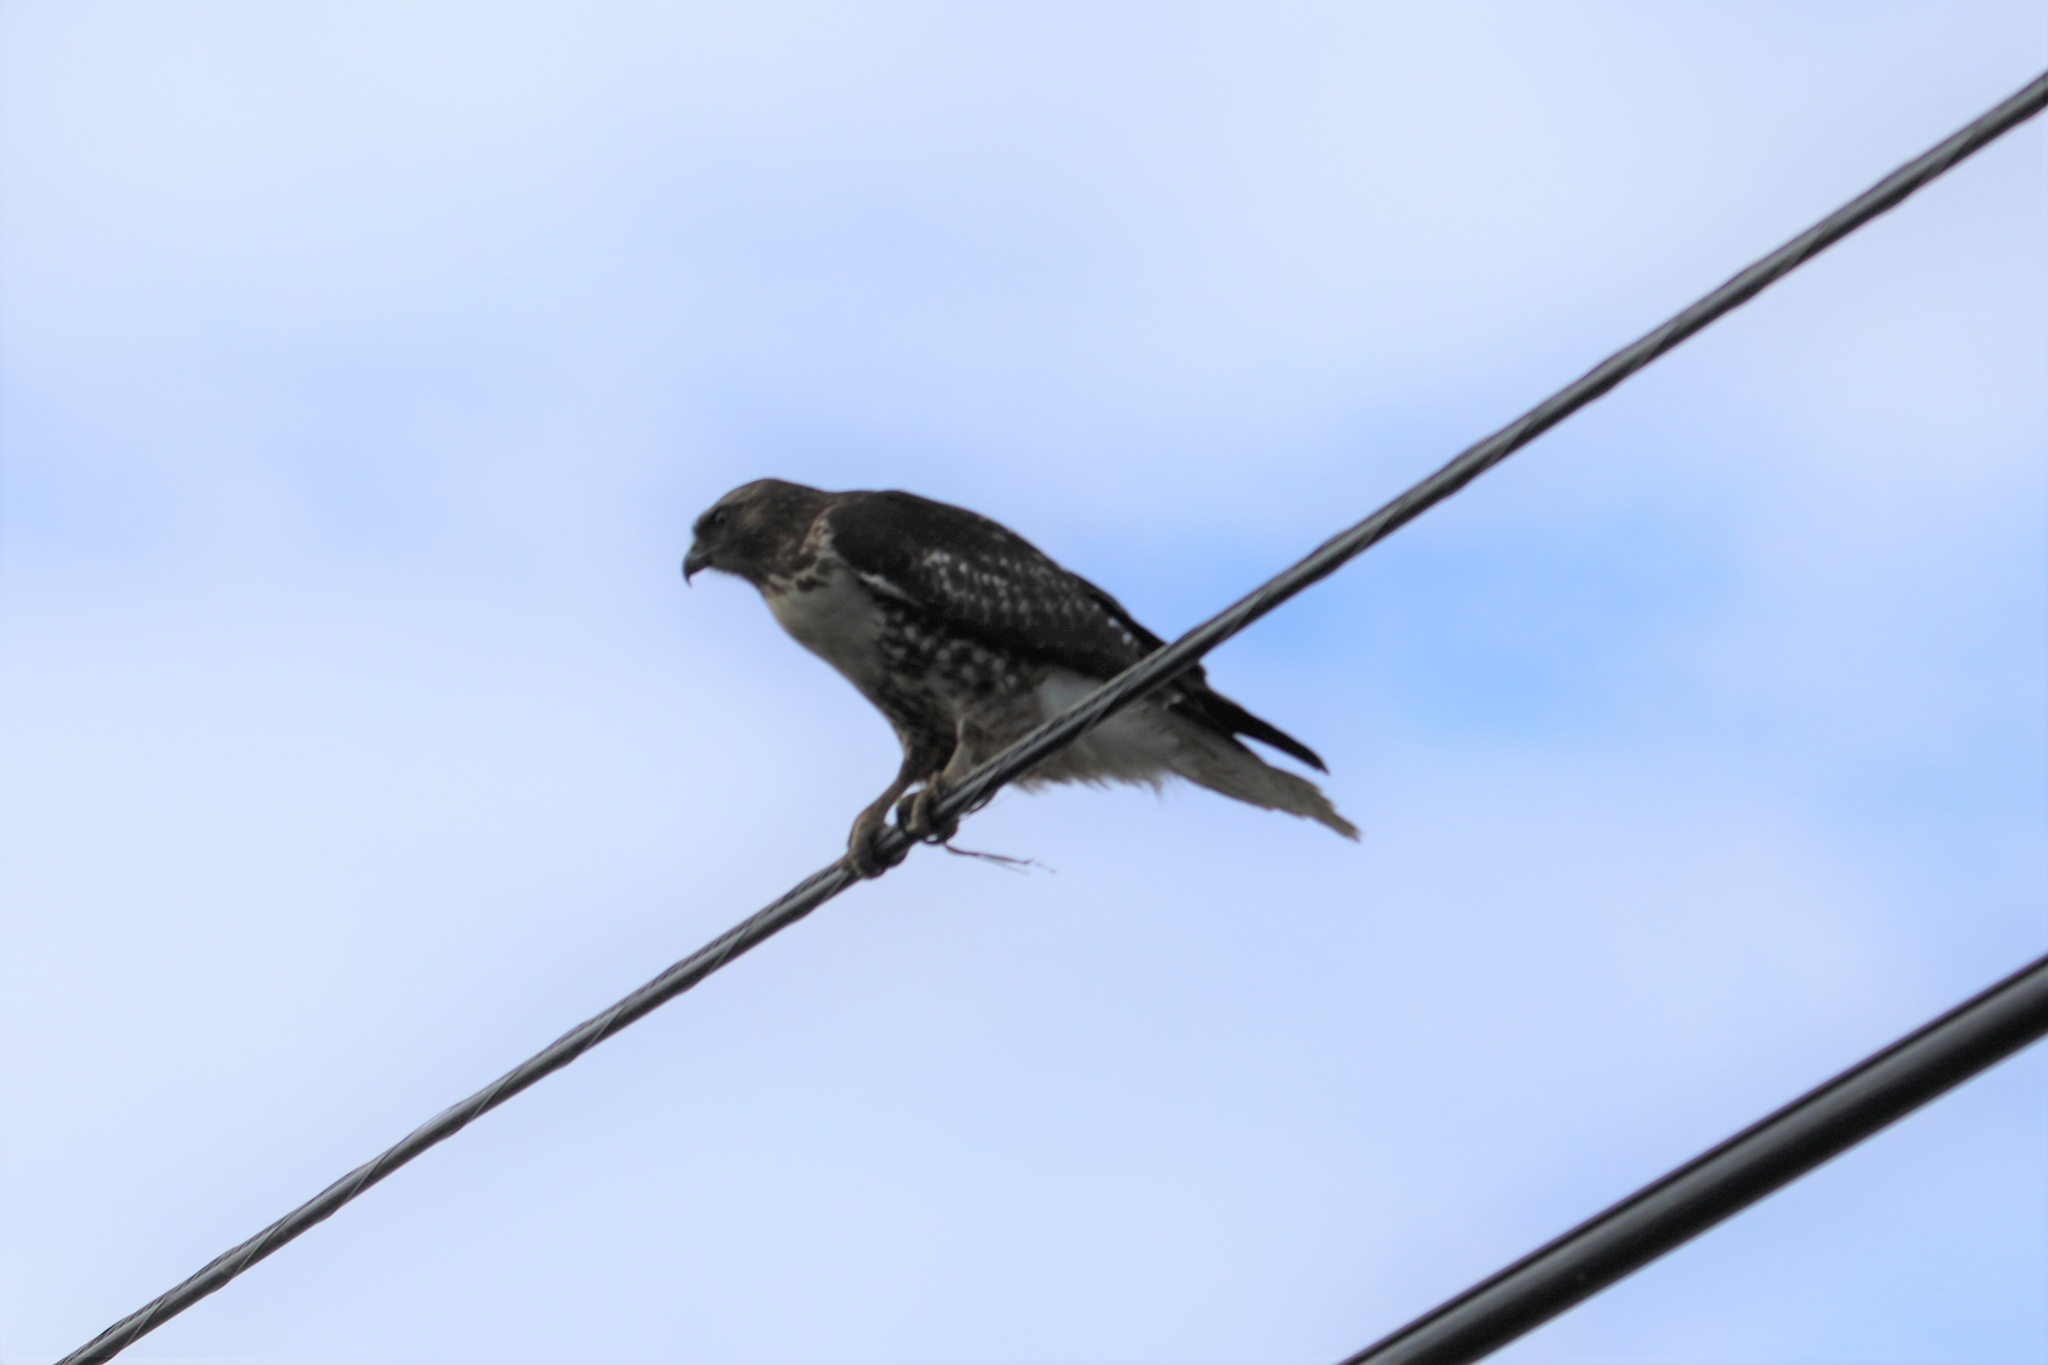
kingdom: Animalia
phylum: Chordata
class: Aves
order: Accipitriformes
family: Accipitridae
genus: Buteo
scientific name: Buteo jamaicensis
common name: Red-tailed hawk
